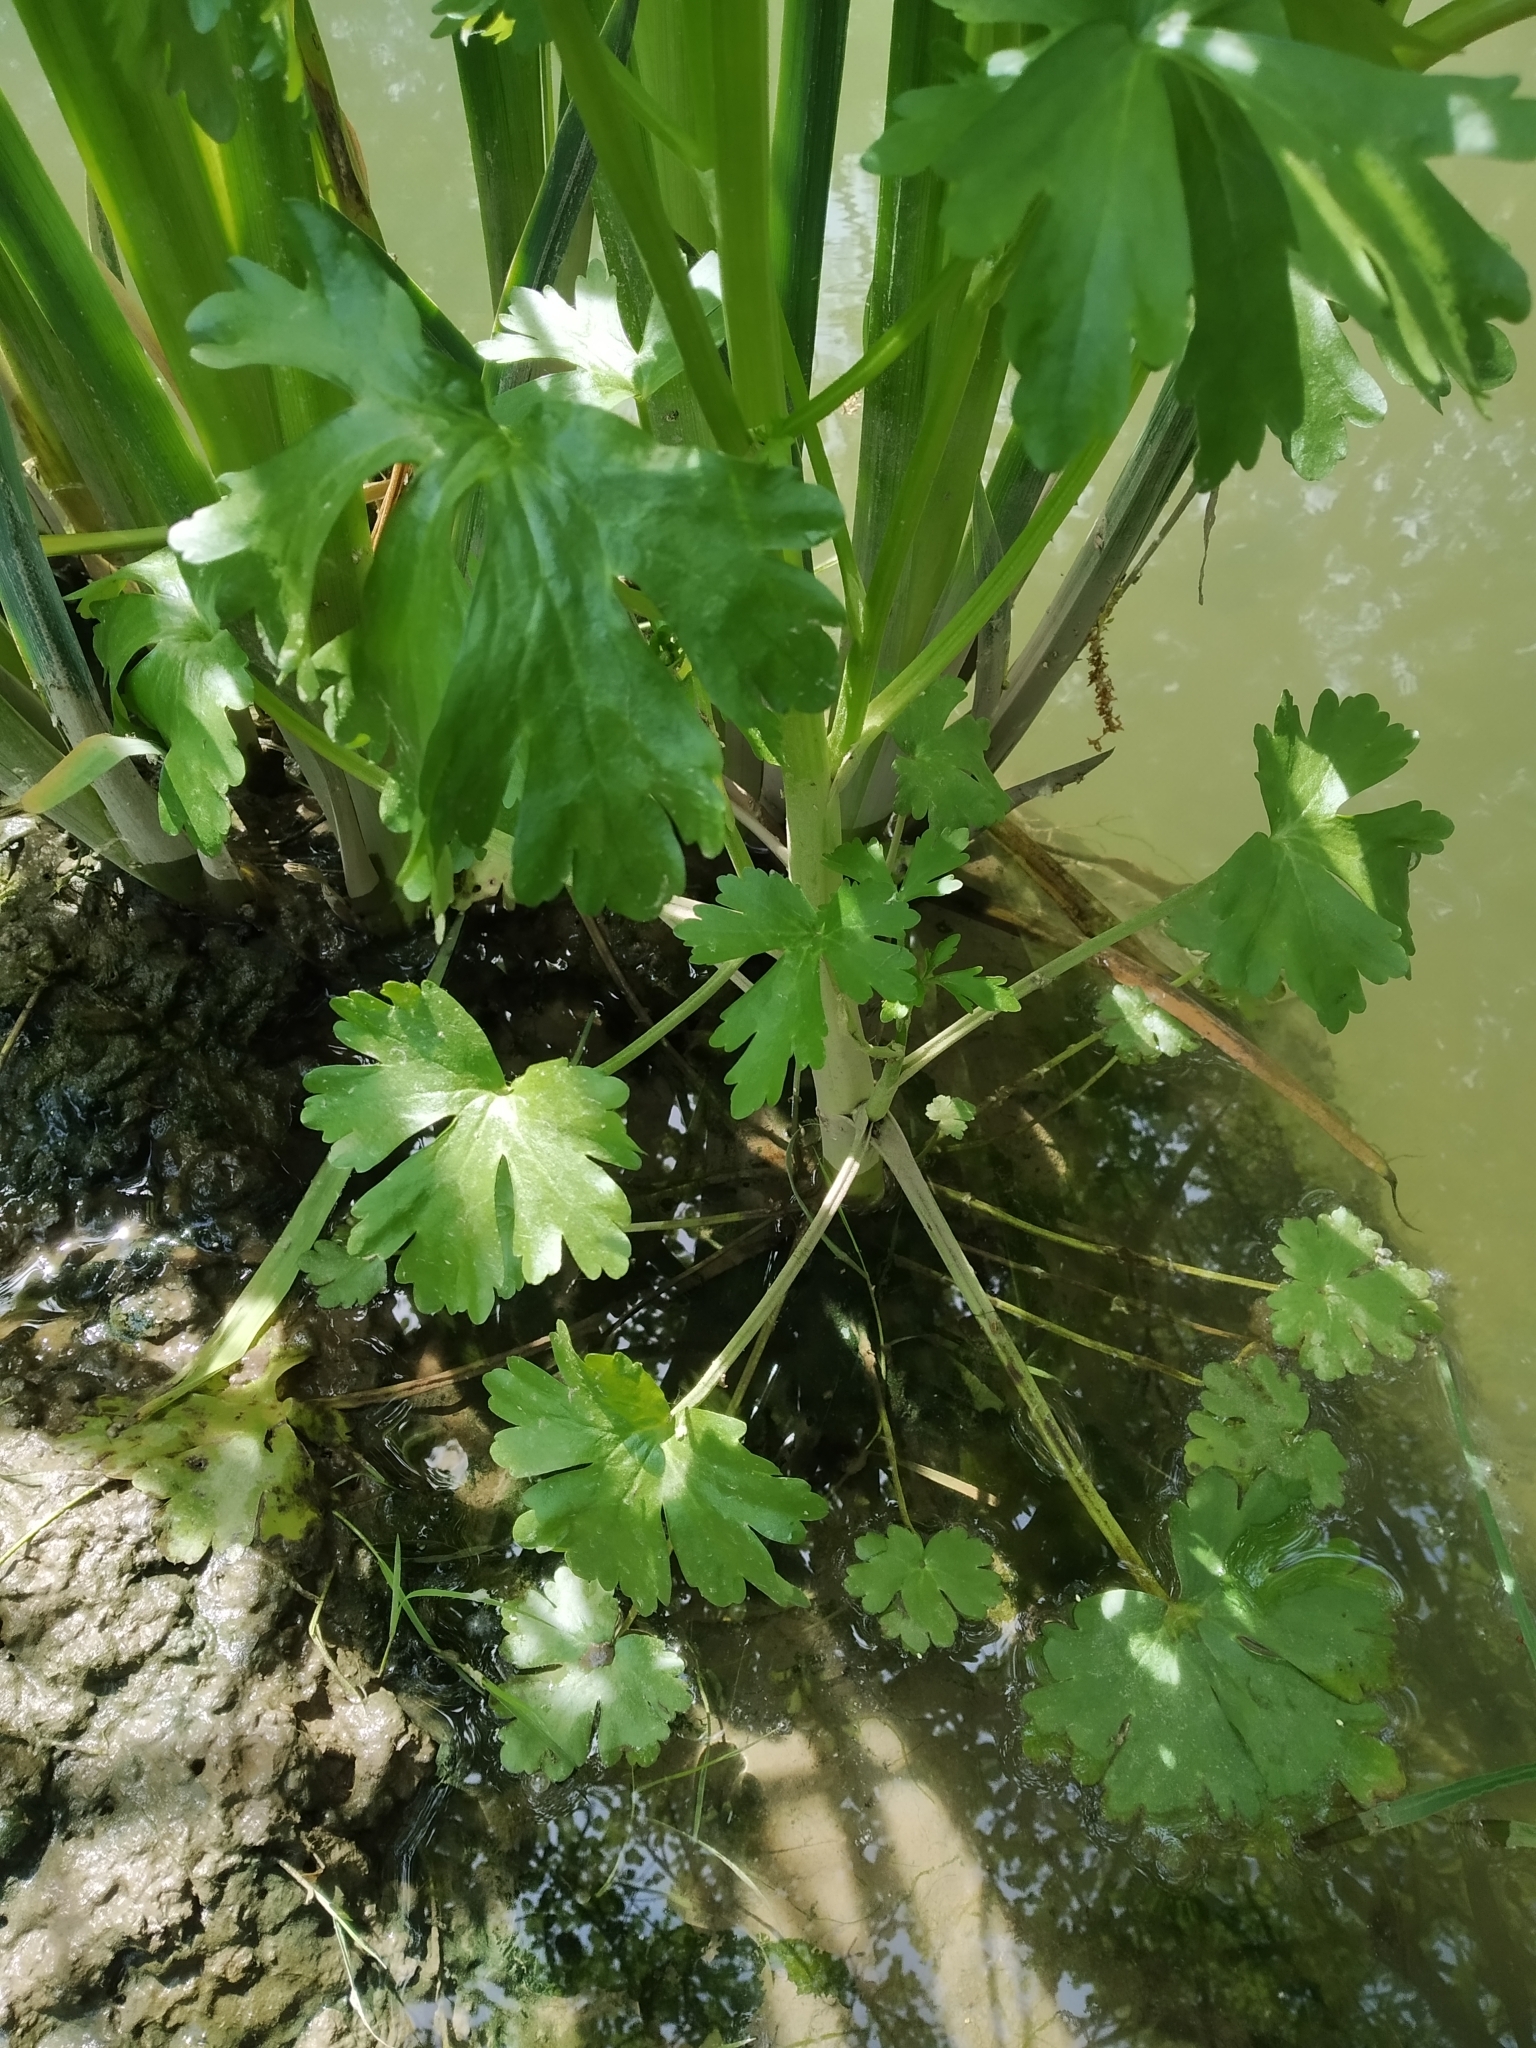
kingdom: Plantae
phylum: Tracheophyta
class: Magnoliopsida
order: Ranunculales
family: Ranunculaceae
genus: Ranunculus
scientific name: Ranunculus sceleratus
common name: Celery-leaved buttercup
